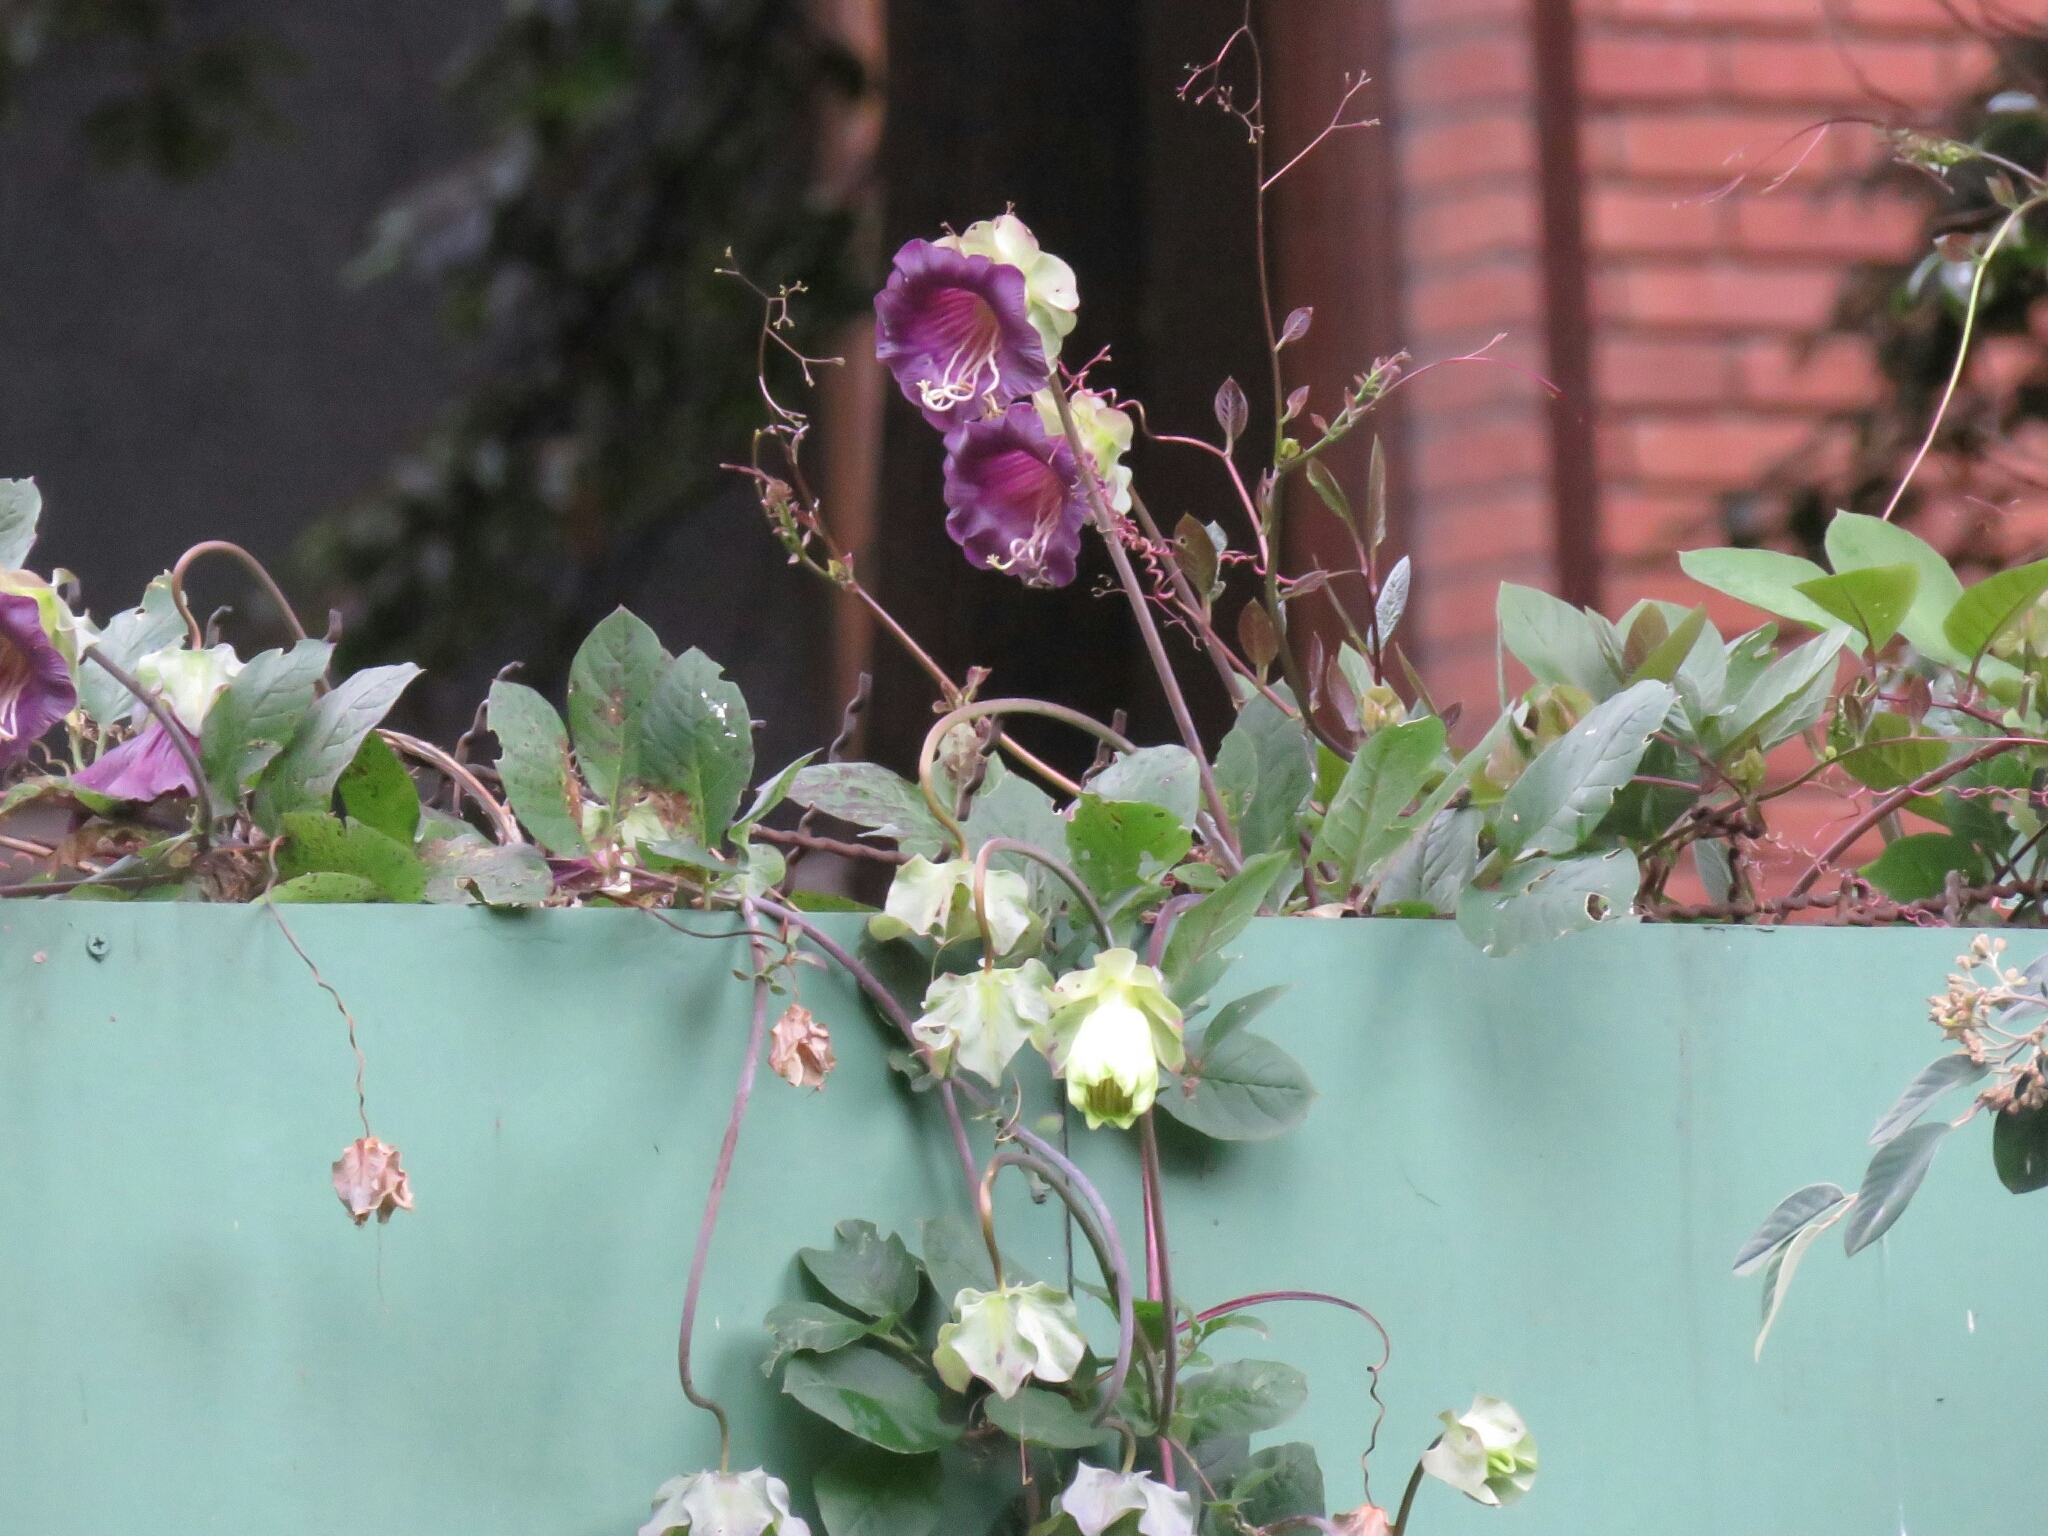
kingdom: Plantae
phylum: Tracheophyta
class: Magnoliopsida
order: Ericales
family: Polemoniaceae
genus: Cobaea
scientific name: Cobaea scandens
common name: Cup-and-saucer-vine
